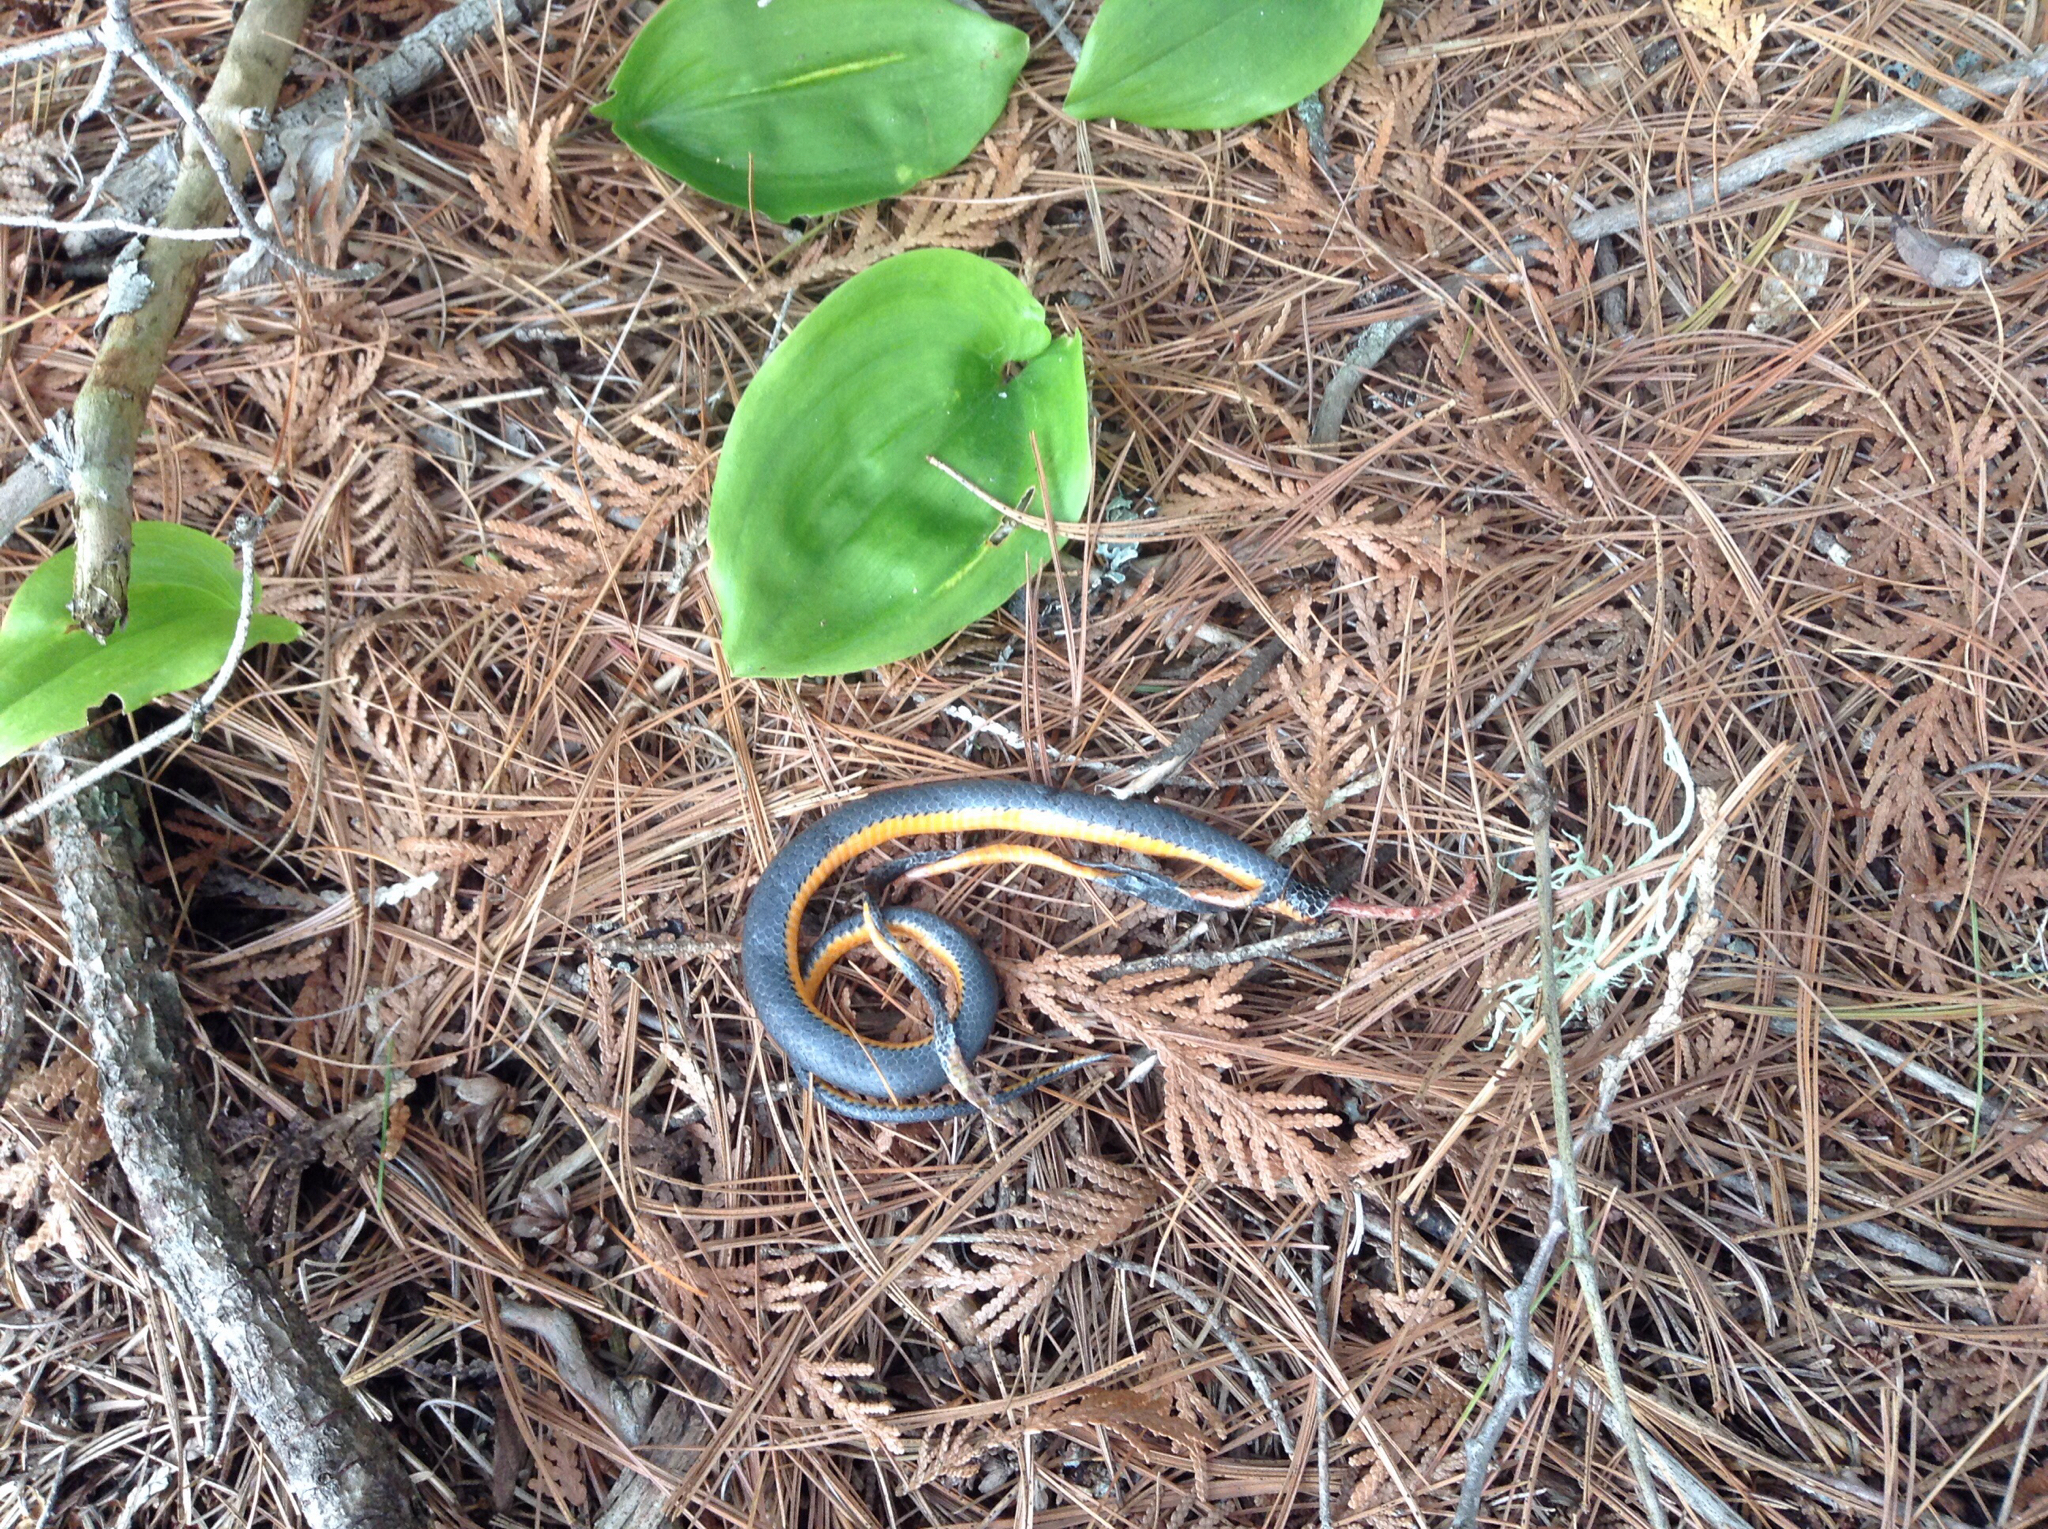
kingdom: Animalia
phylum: Chordata
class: Squamata
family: Colubridae
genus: Diadophis
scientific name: Diadophis punctatus
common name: Ringneck snake
